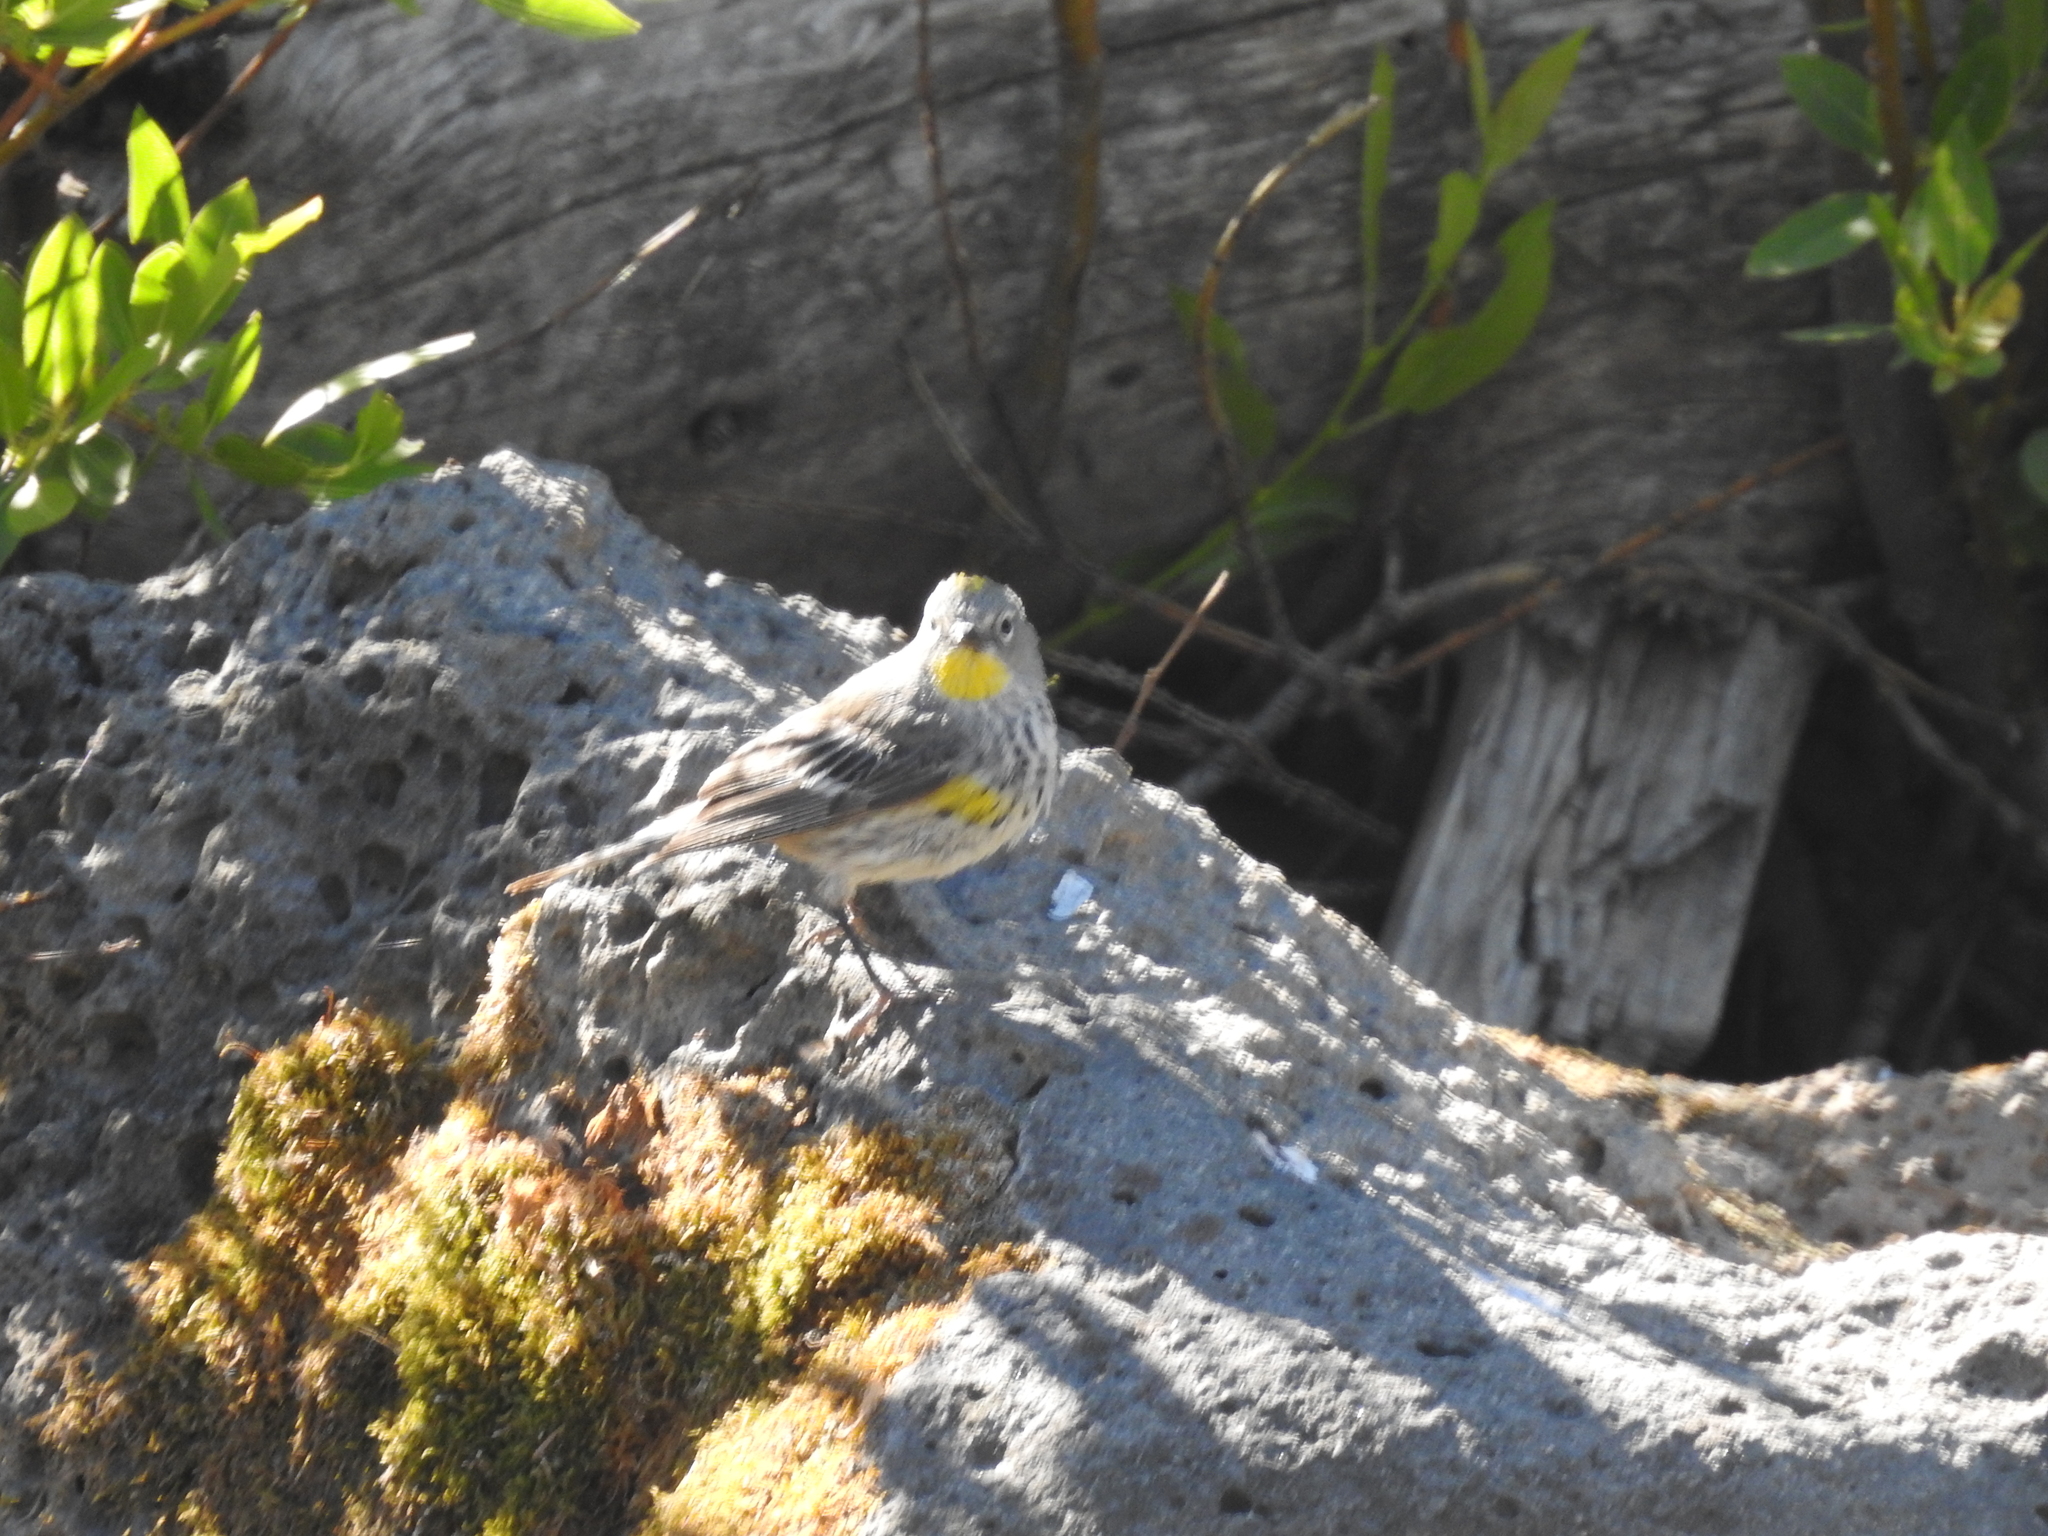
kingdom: Animalia
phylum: Chordata
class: Aves
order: Passeriformes
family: Parulidae
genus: Setophaga
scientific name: Setophaga coronata
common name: Myrtle warbler
